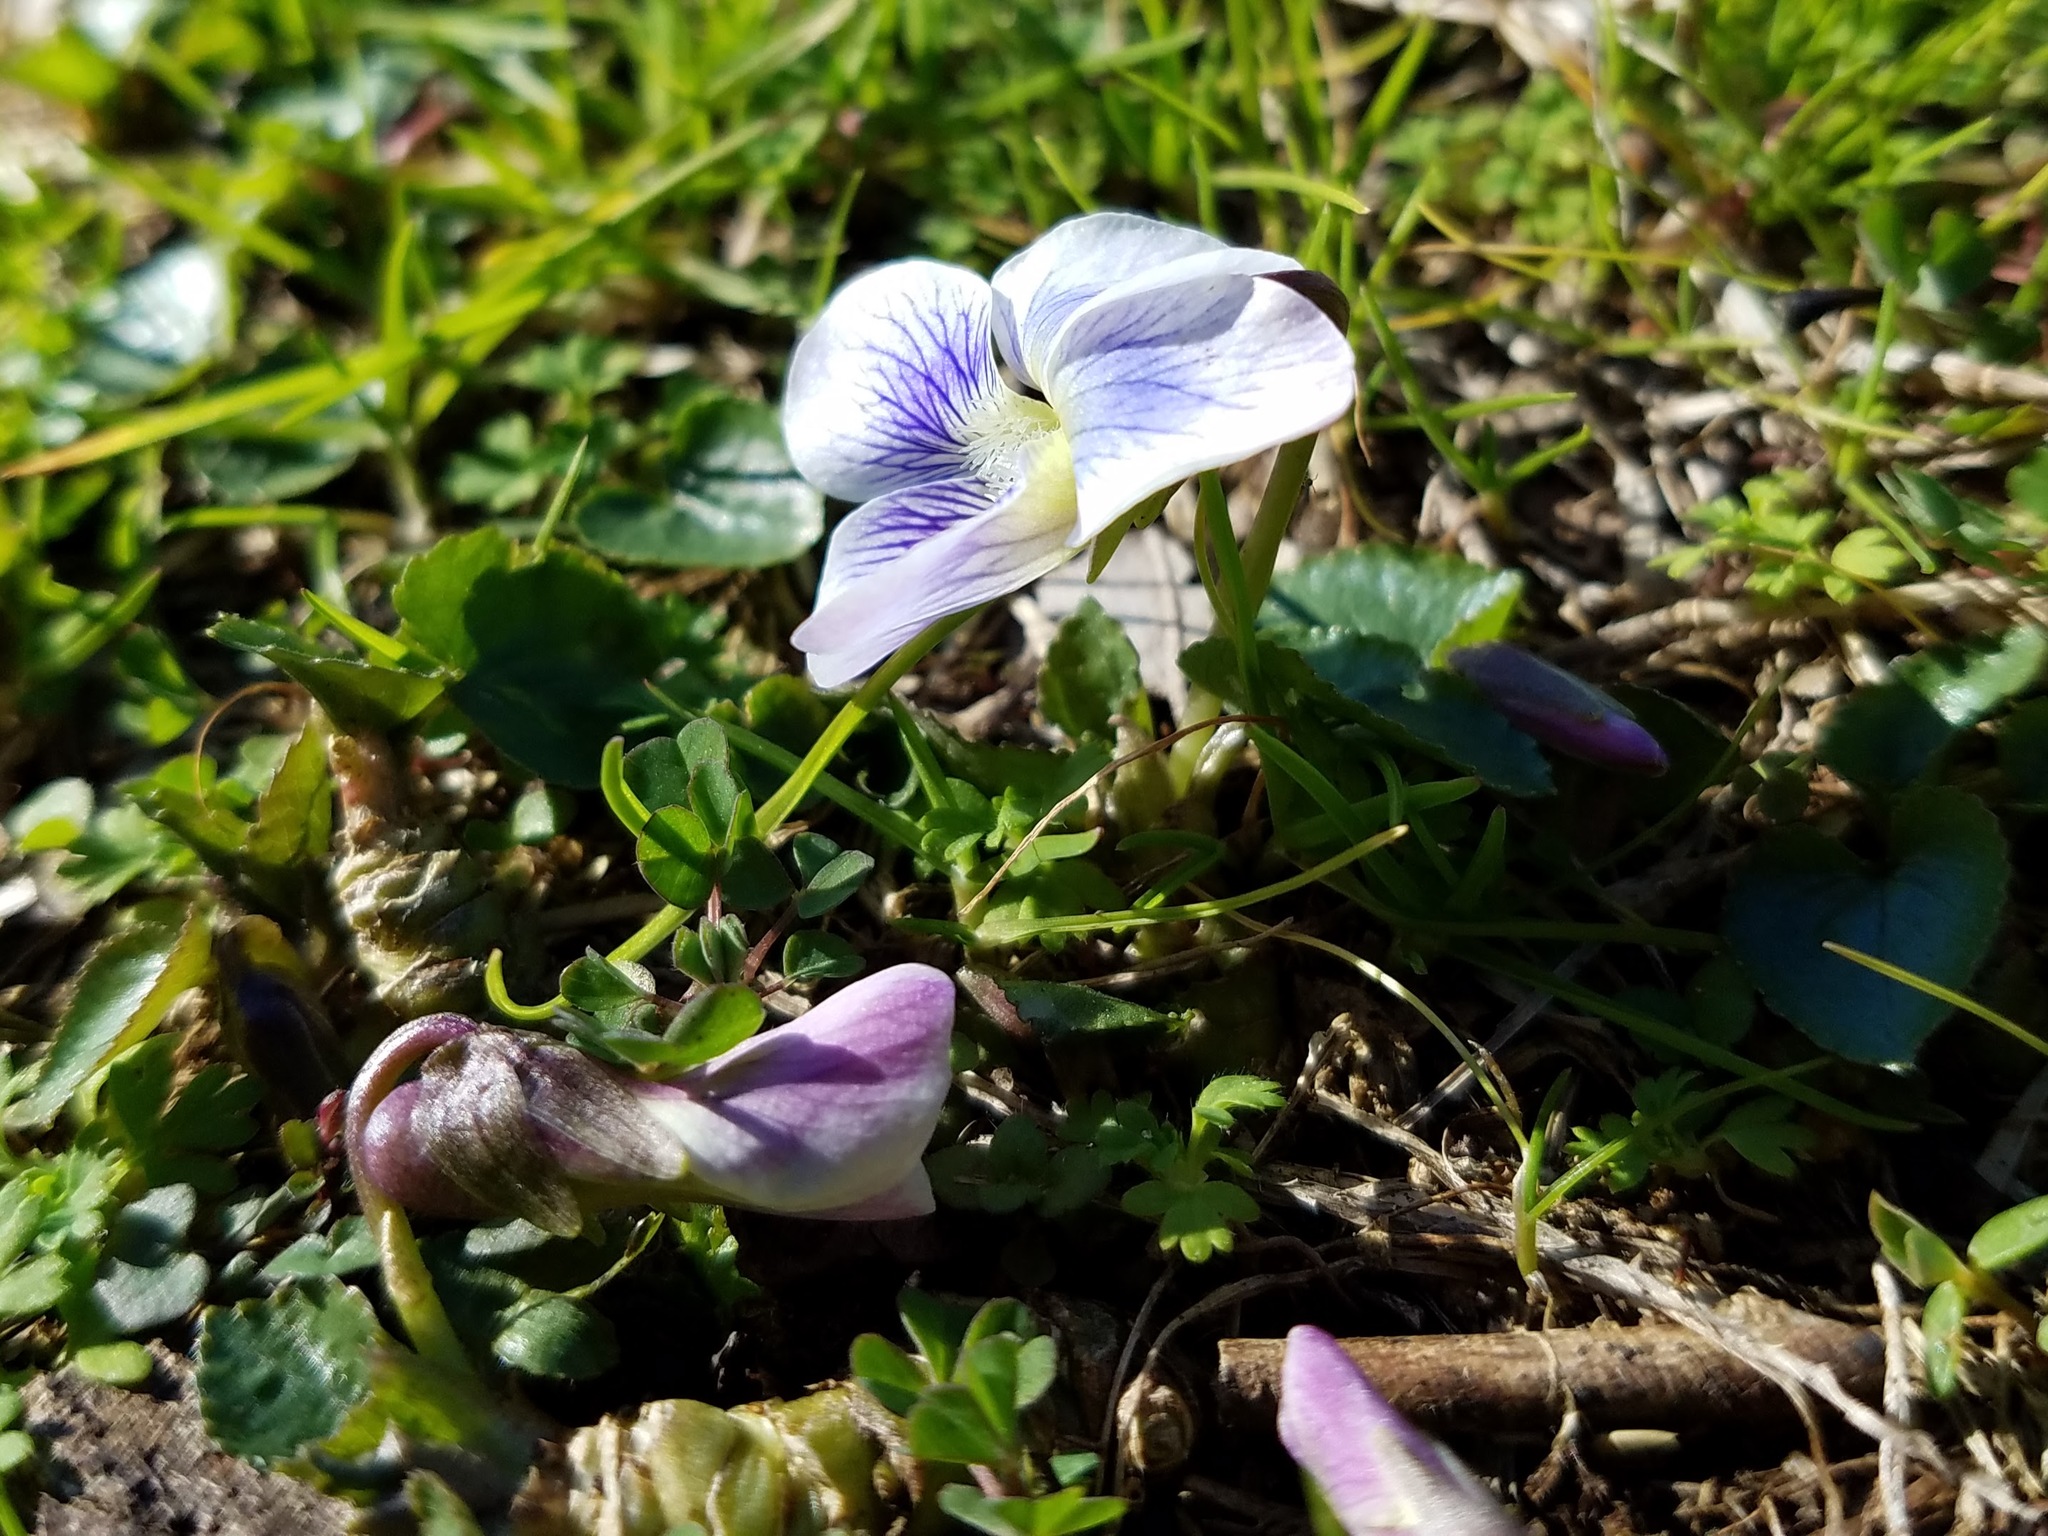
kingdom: Plantae
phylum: Tracheophyta
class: Magnoliopsida
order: Malpighiales
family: Violaceae
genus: Viola
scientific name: Viola sororia
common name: Dooryard violet
